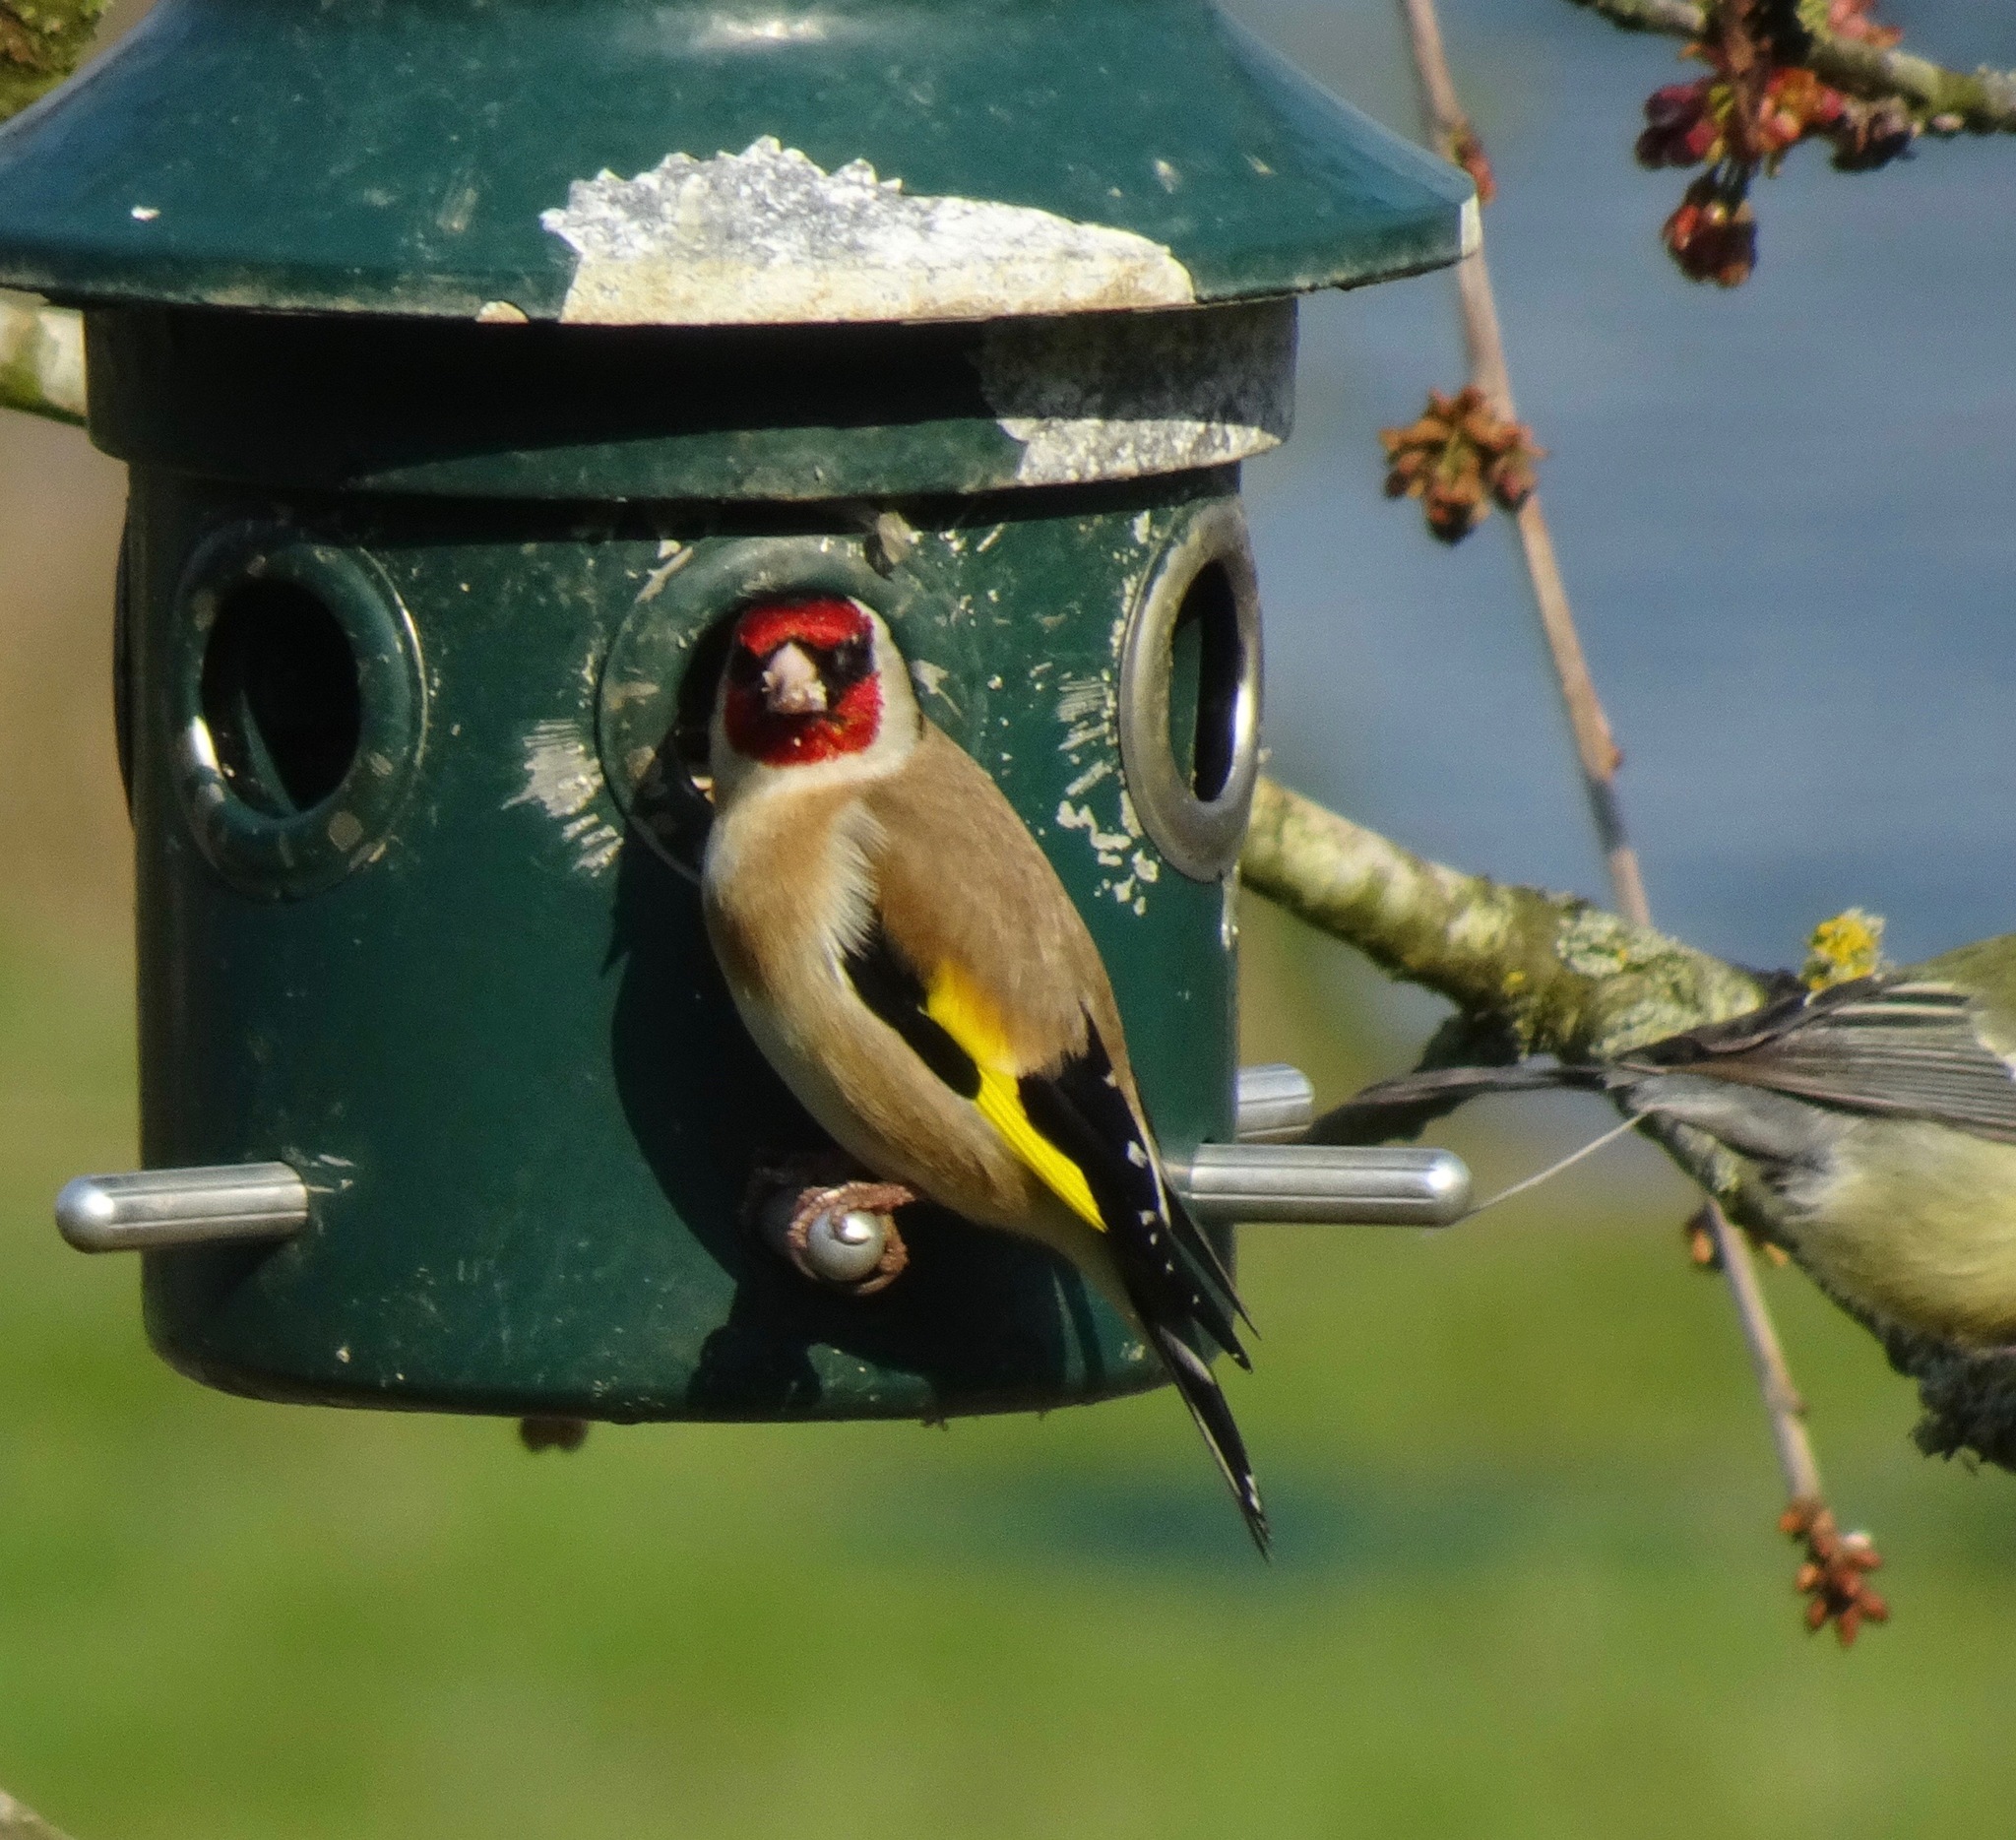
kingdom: Animalia
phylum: Chordata
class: Aves
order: Passeriformes
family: Fringillidae
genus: Carduelis
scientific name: Carduelis carduelis
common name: European goldfinch
